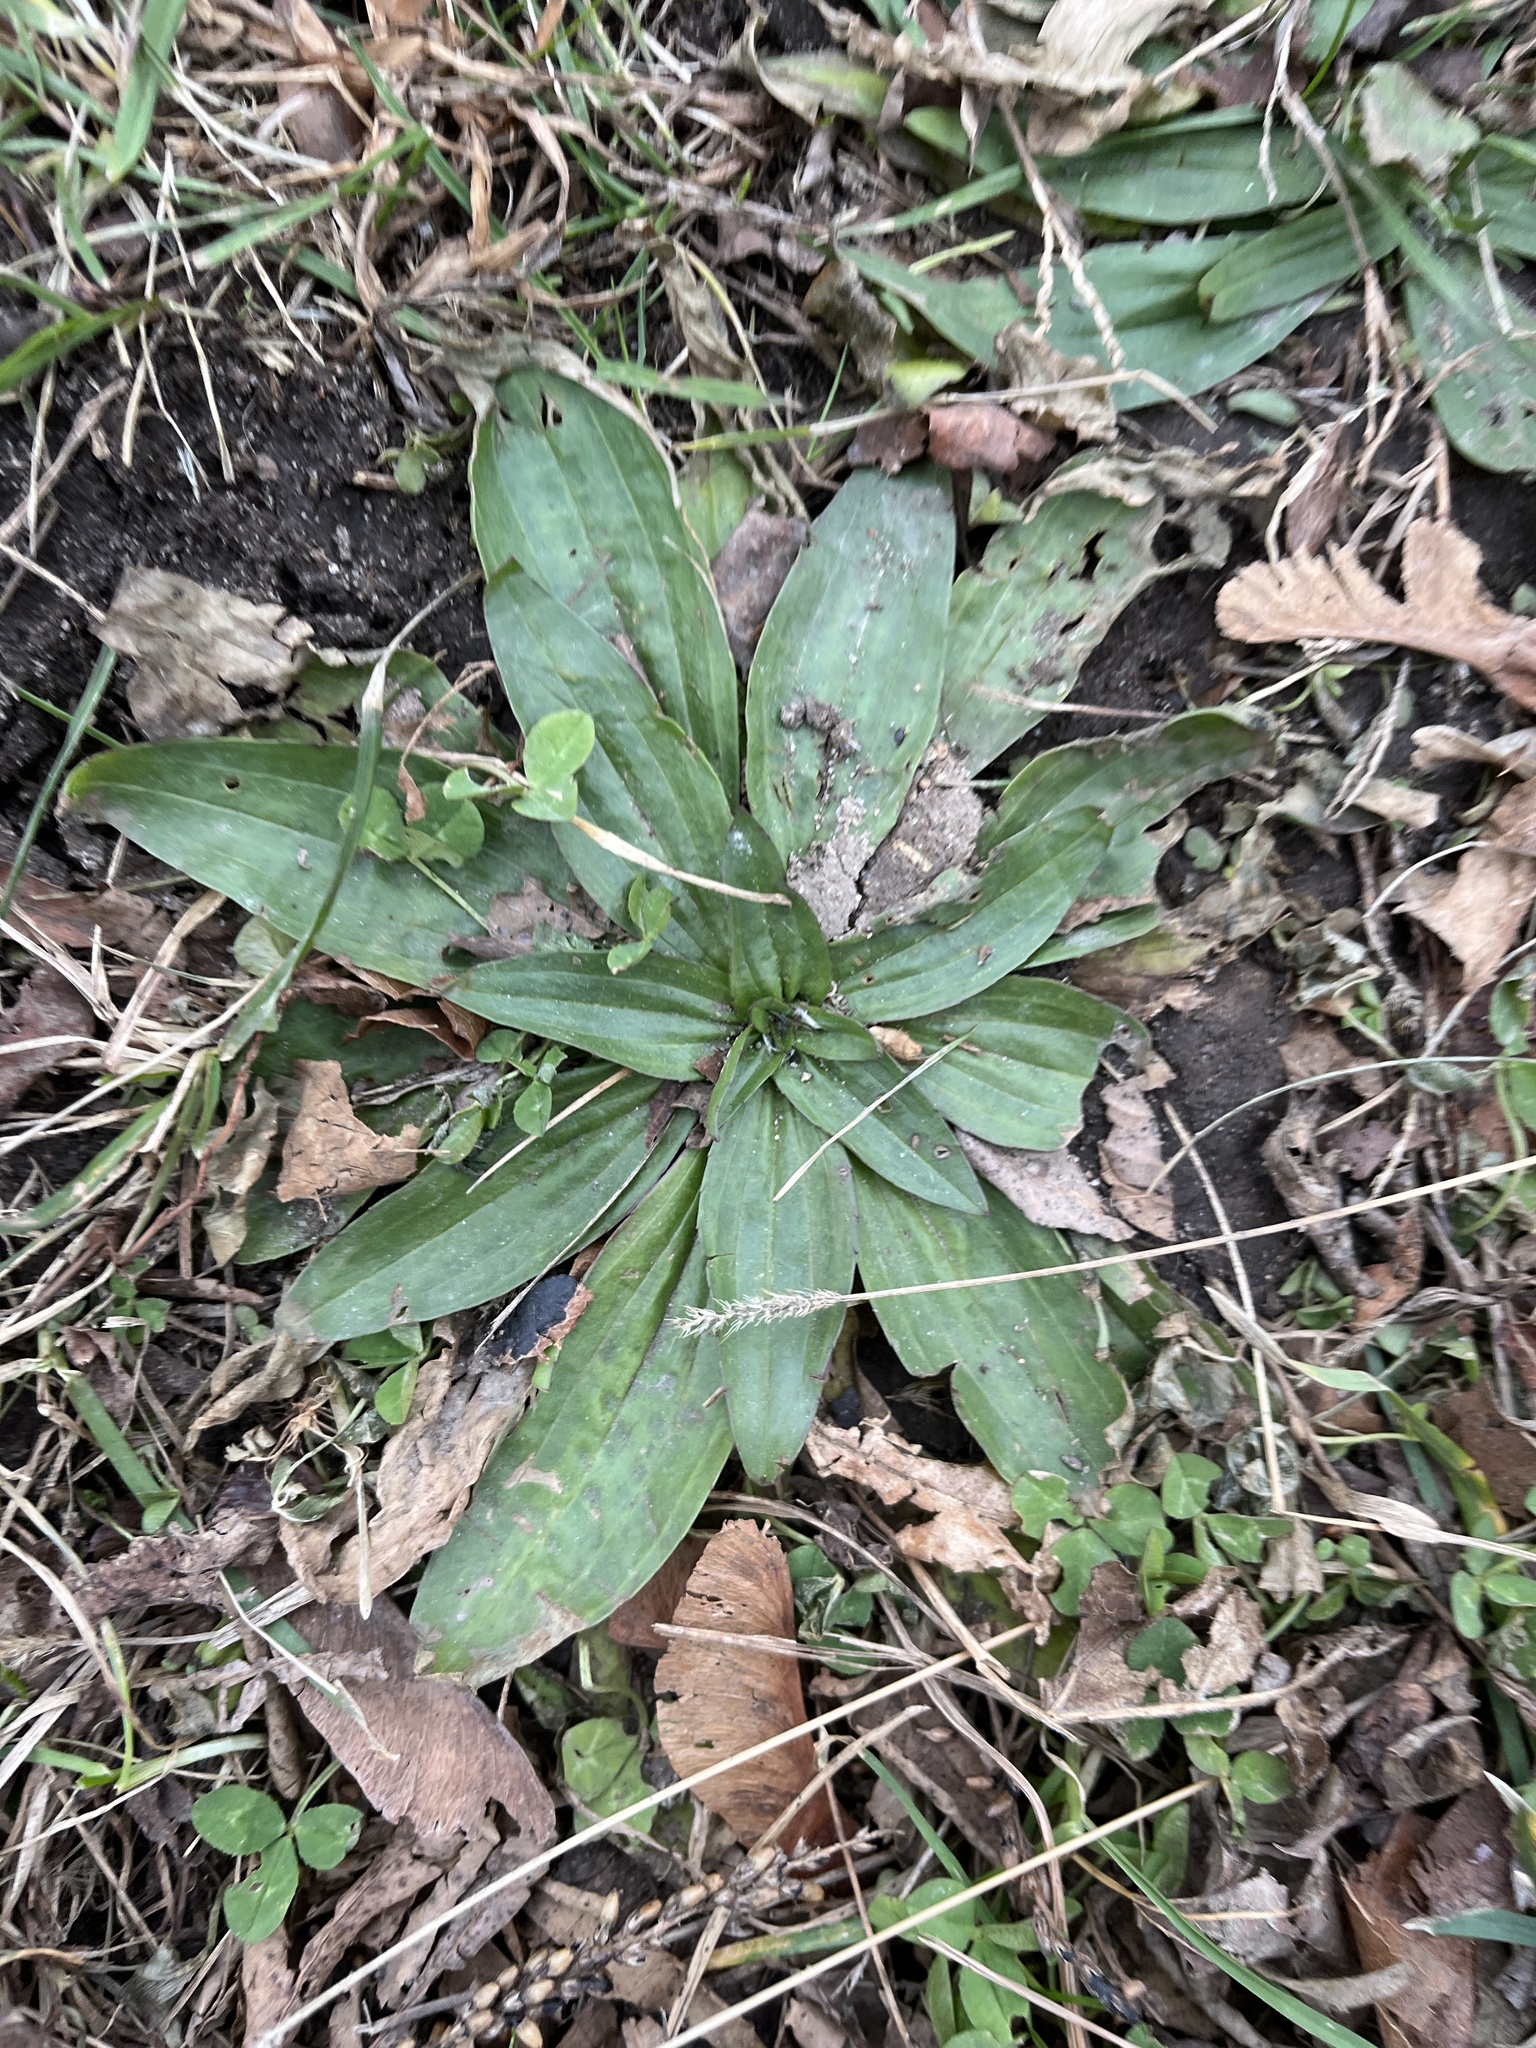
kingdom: Plantae
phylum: Tracheophyta
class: Magnoliopsida
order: Lamiales
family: Plantaginaceae
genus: Plantago
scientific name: Plantago lanceolata
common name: Ribwort plantain
